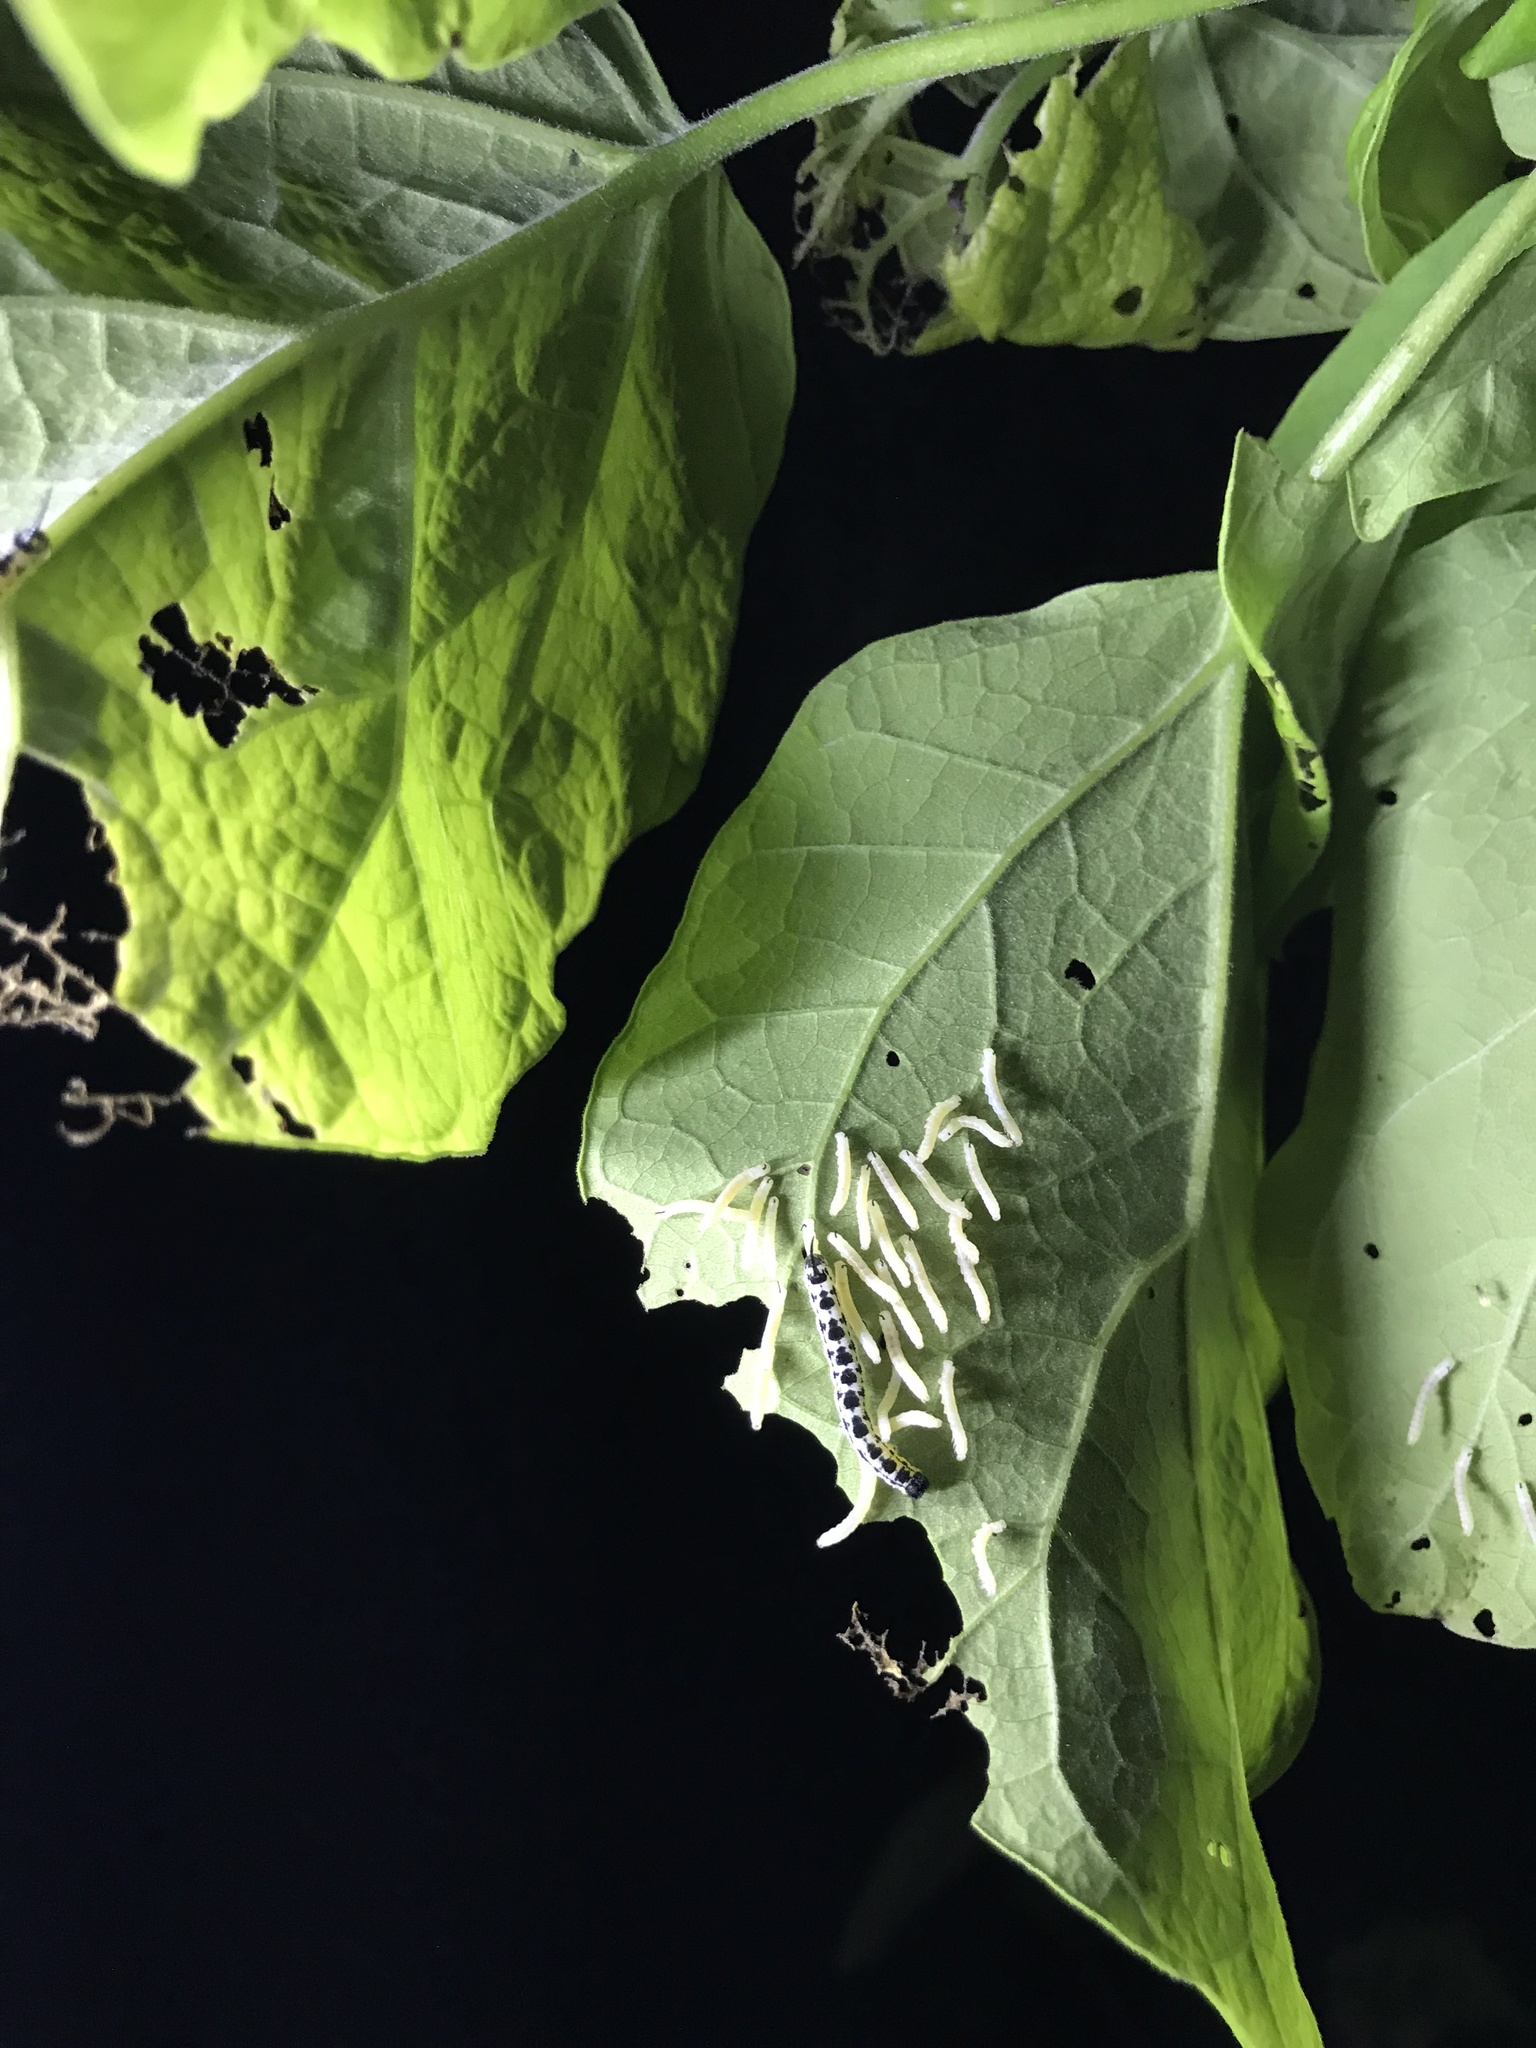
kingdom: Animalia
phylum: Arthropoda
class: Insecta
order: Lepidoptera
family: Sphingidae
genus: Ceratomia
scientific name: Ceratomia catalpae
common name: Catalpa hornworm
